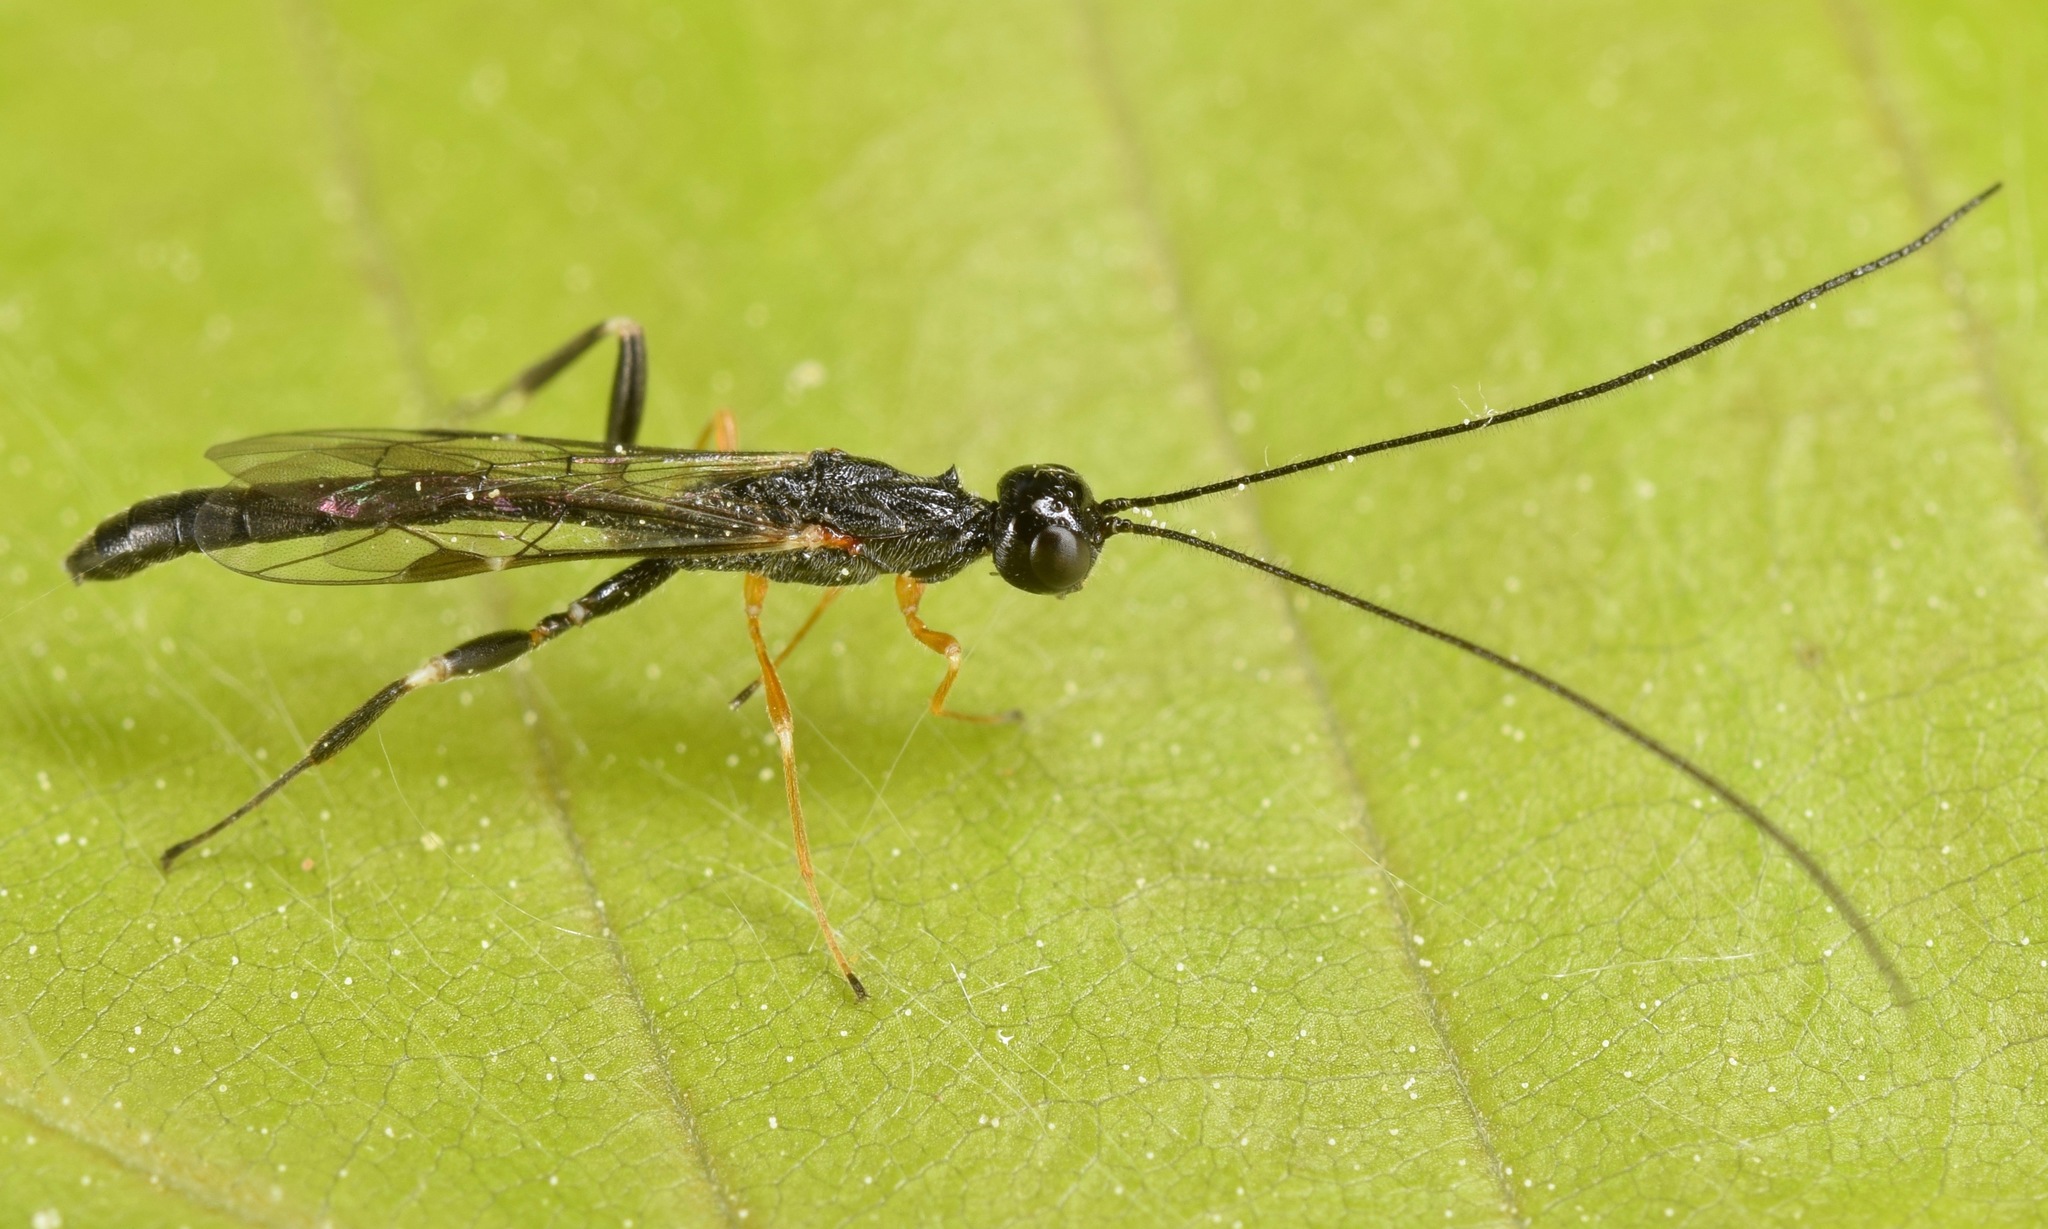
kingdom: Animalia
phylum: Arthropoda
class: Insecta
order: Hymenoptera
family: Ichneumonidae
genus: Xorides
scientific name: Xorides humeralis
